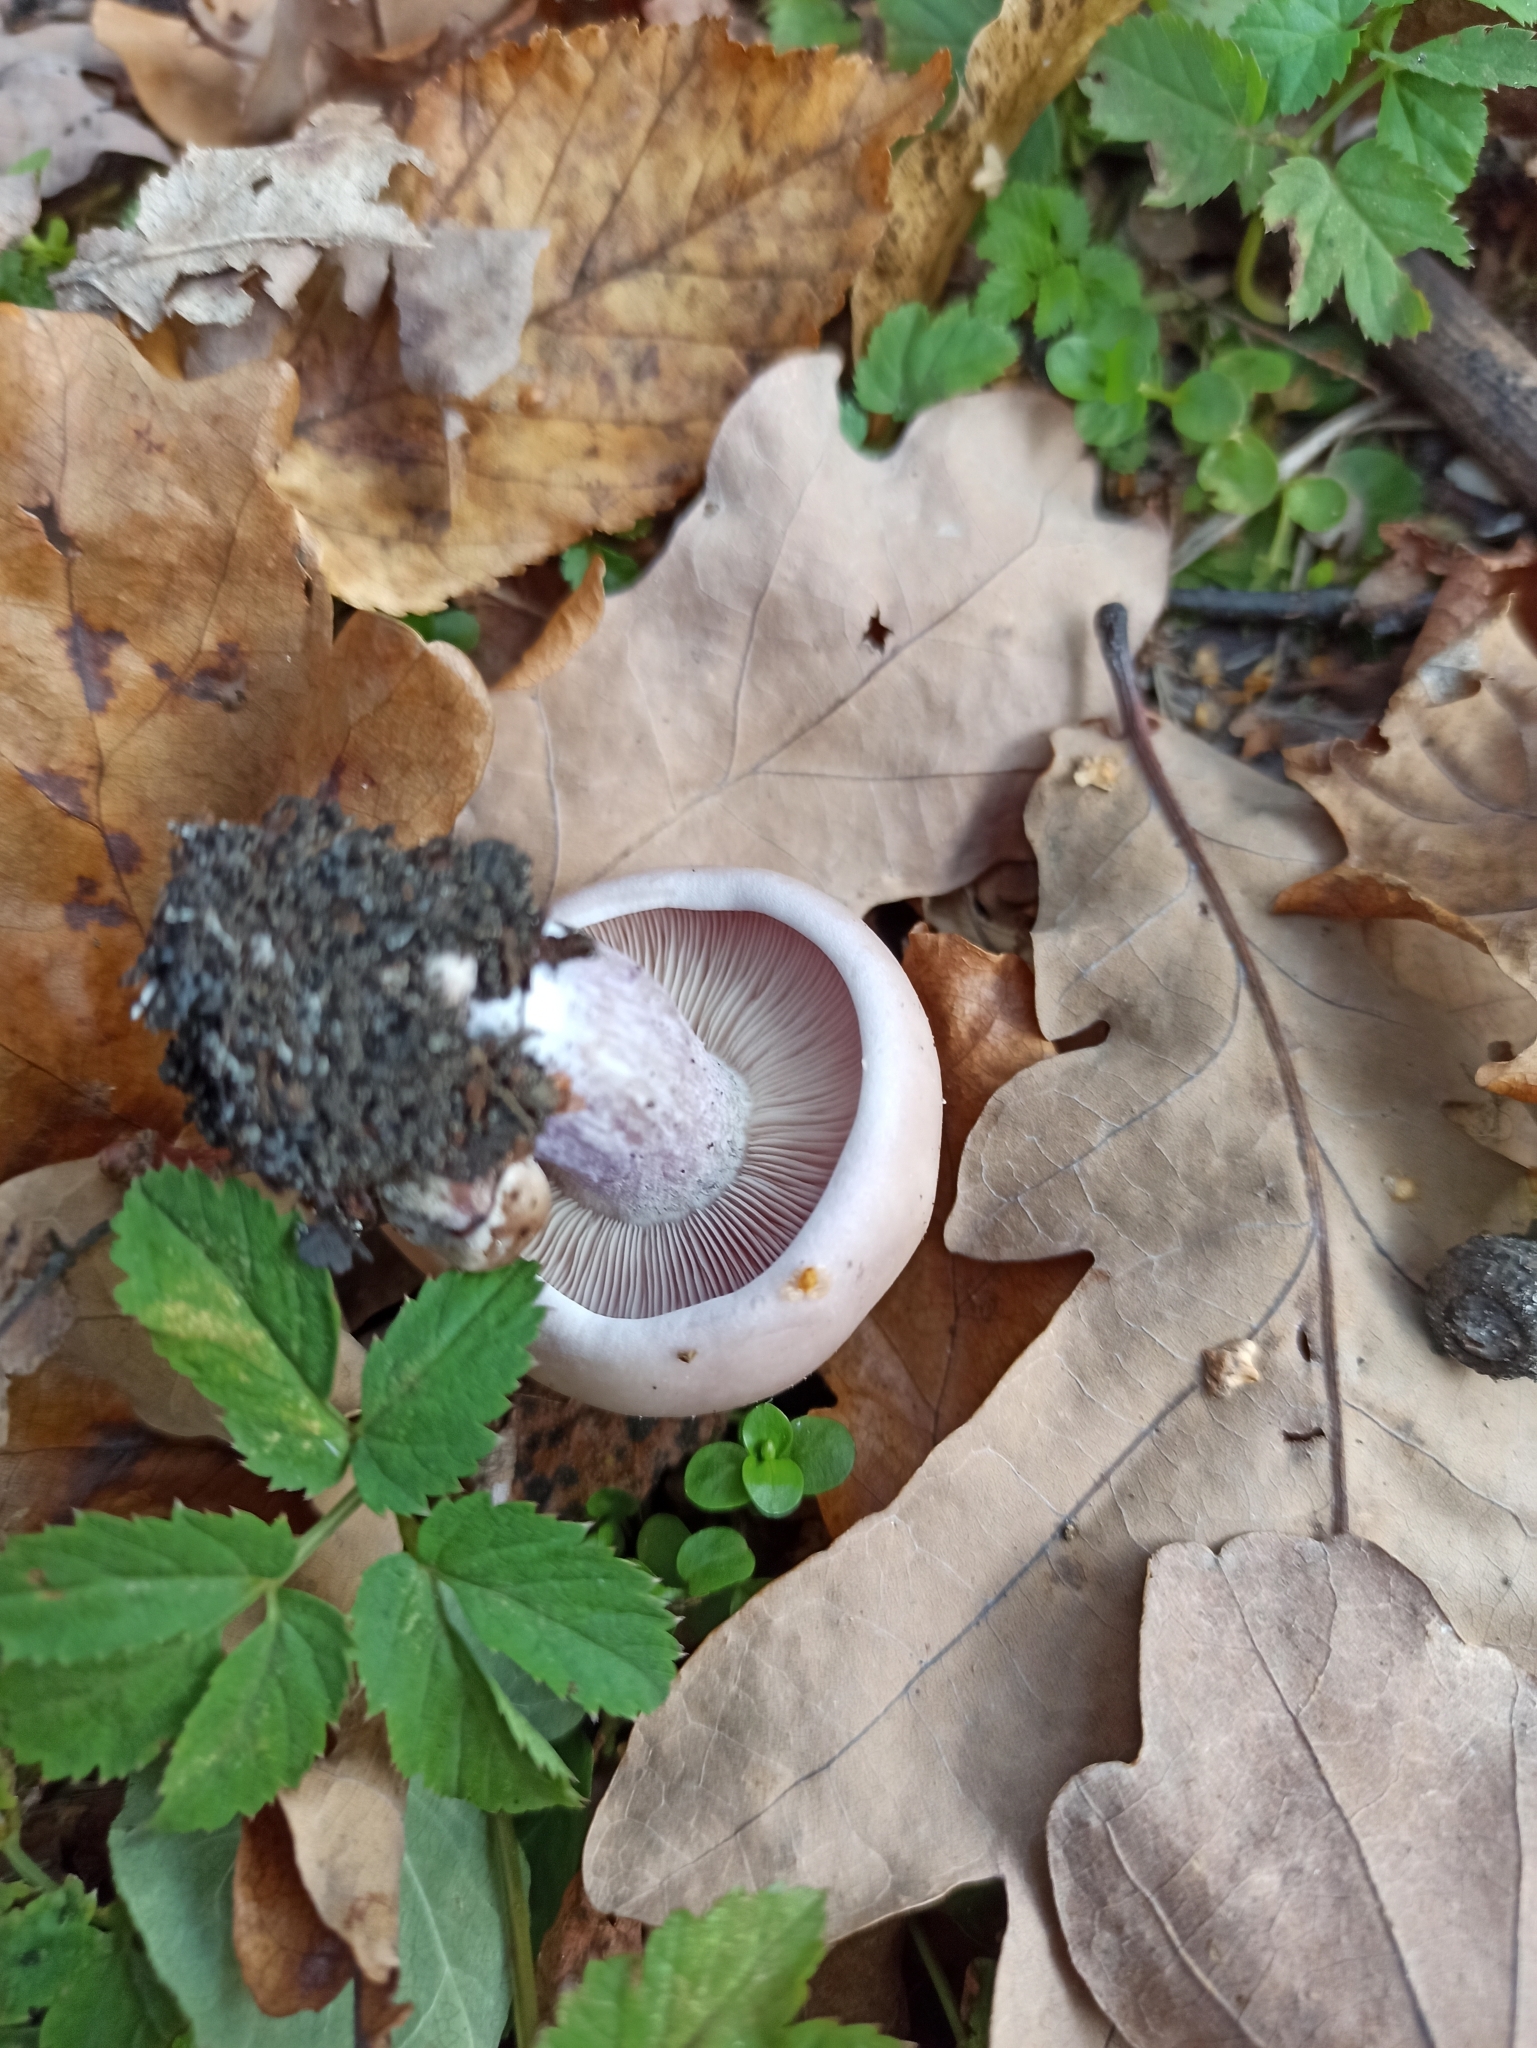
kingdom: Fungi
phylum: Basidiomycota
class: Agaricomycetes
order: Agaricales
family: Omphalotaceae
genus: Collybiopsis
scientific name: Collybiopsis peronata
